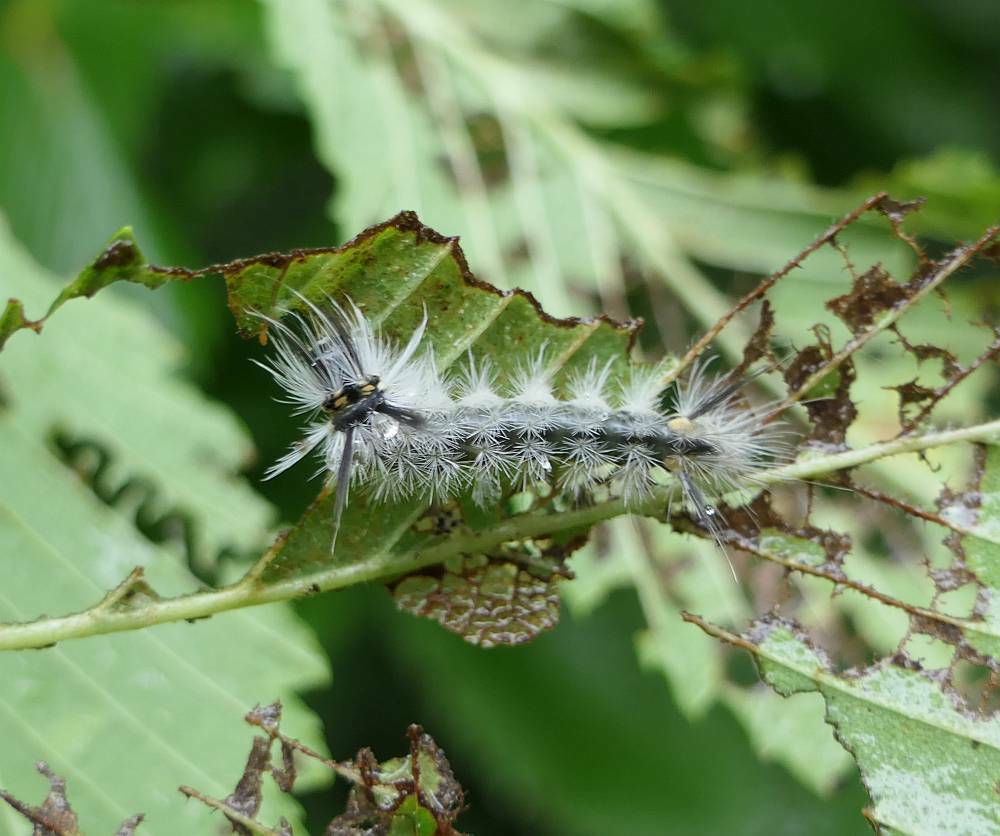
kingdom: Animalia
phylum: Arthropoda
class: Insecta
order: Lepidoptera
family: Erebidae
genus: Halysidota
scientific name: Halysidota tessellaris
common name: Banded tussock moth
